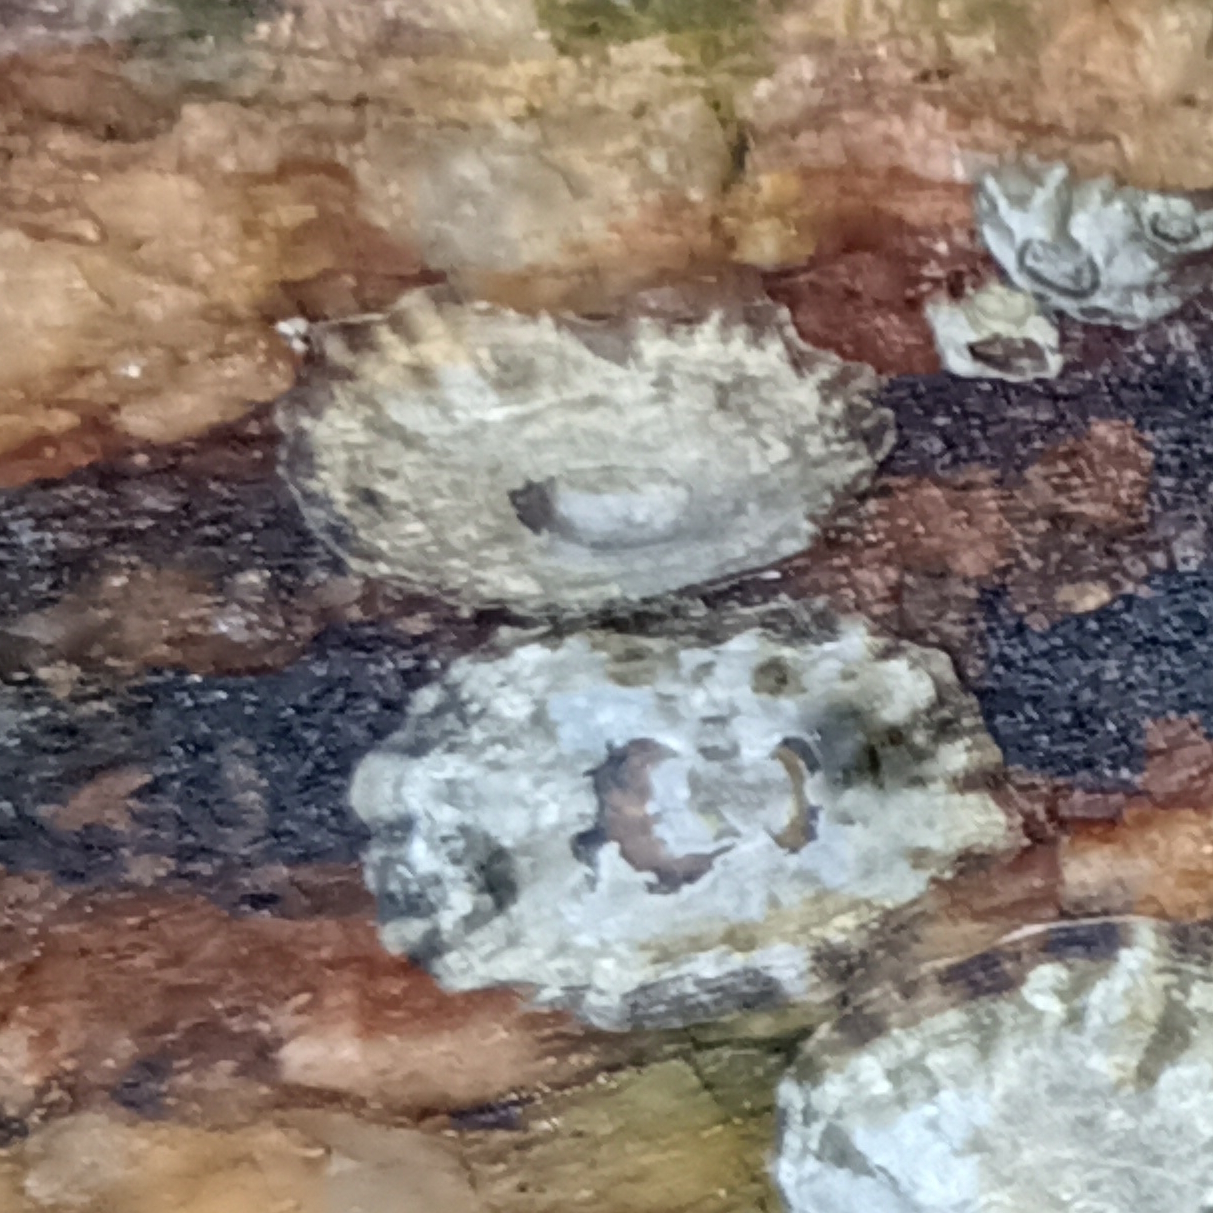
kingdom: Animalia
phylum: Mollusca
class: Gastropoda
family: Lottiidae
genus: Lottia
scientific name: Lottia subrugosa
